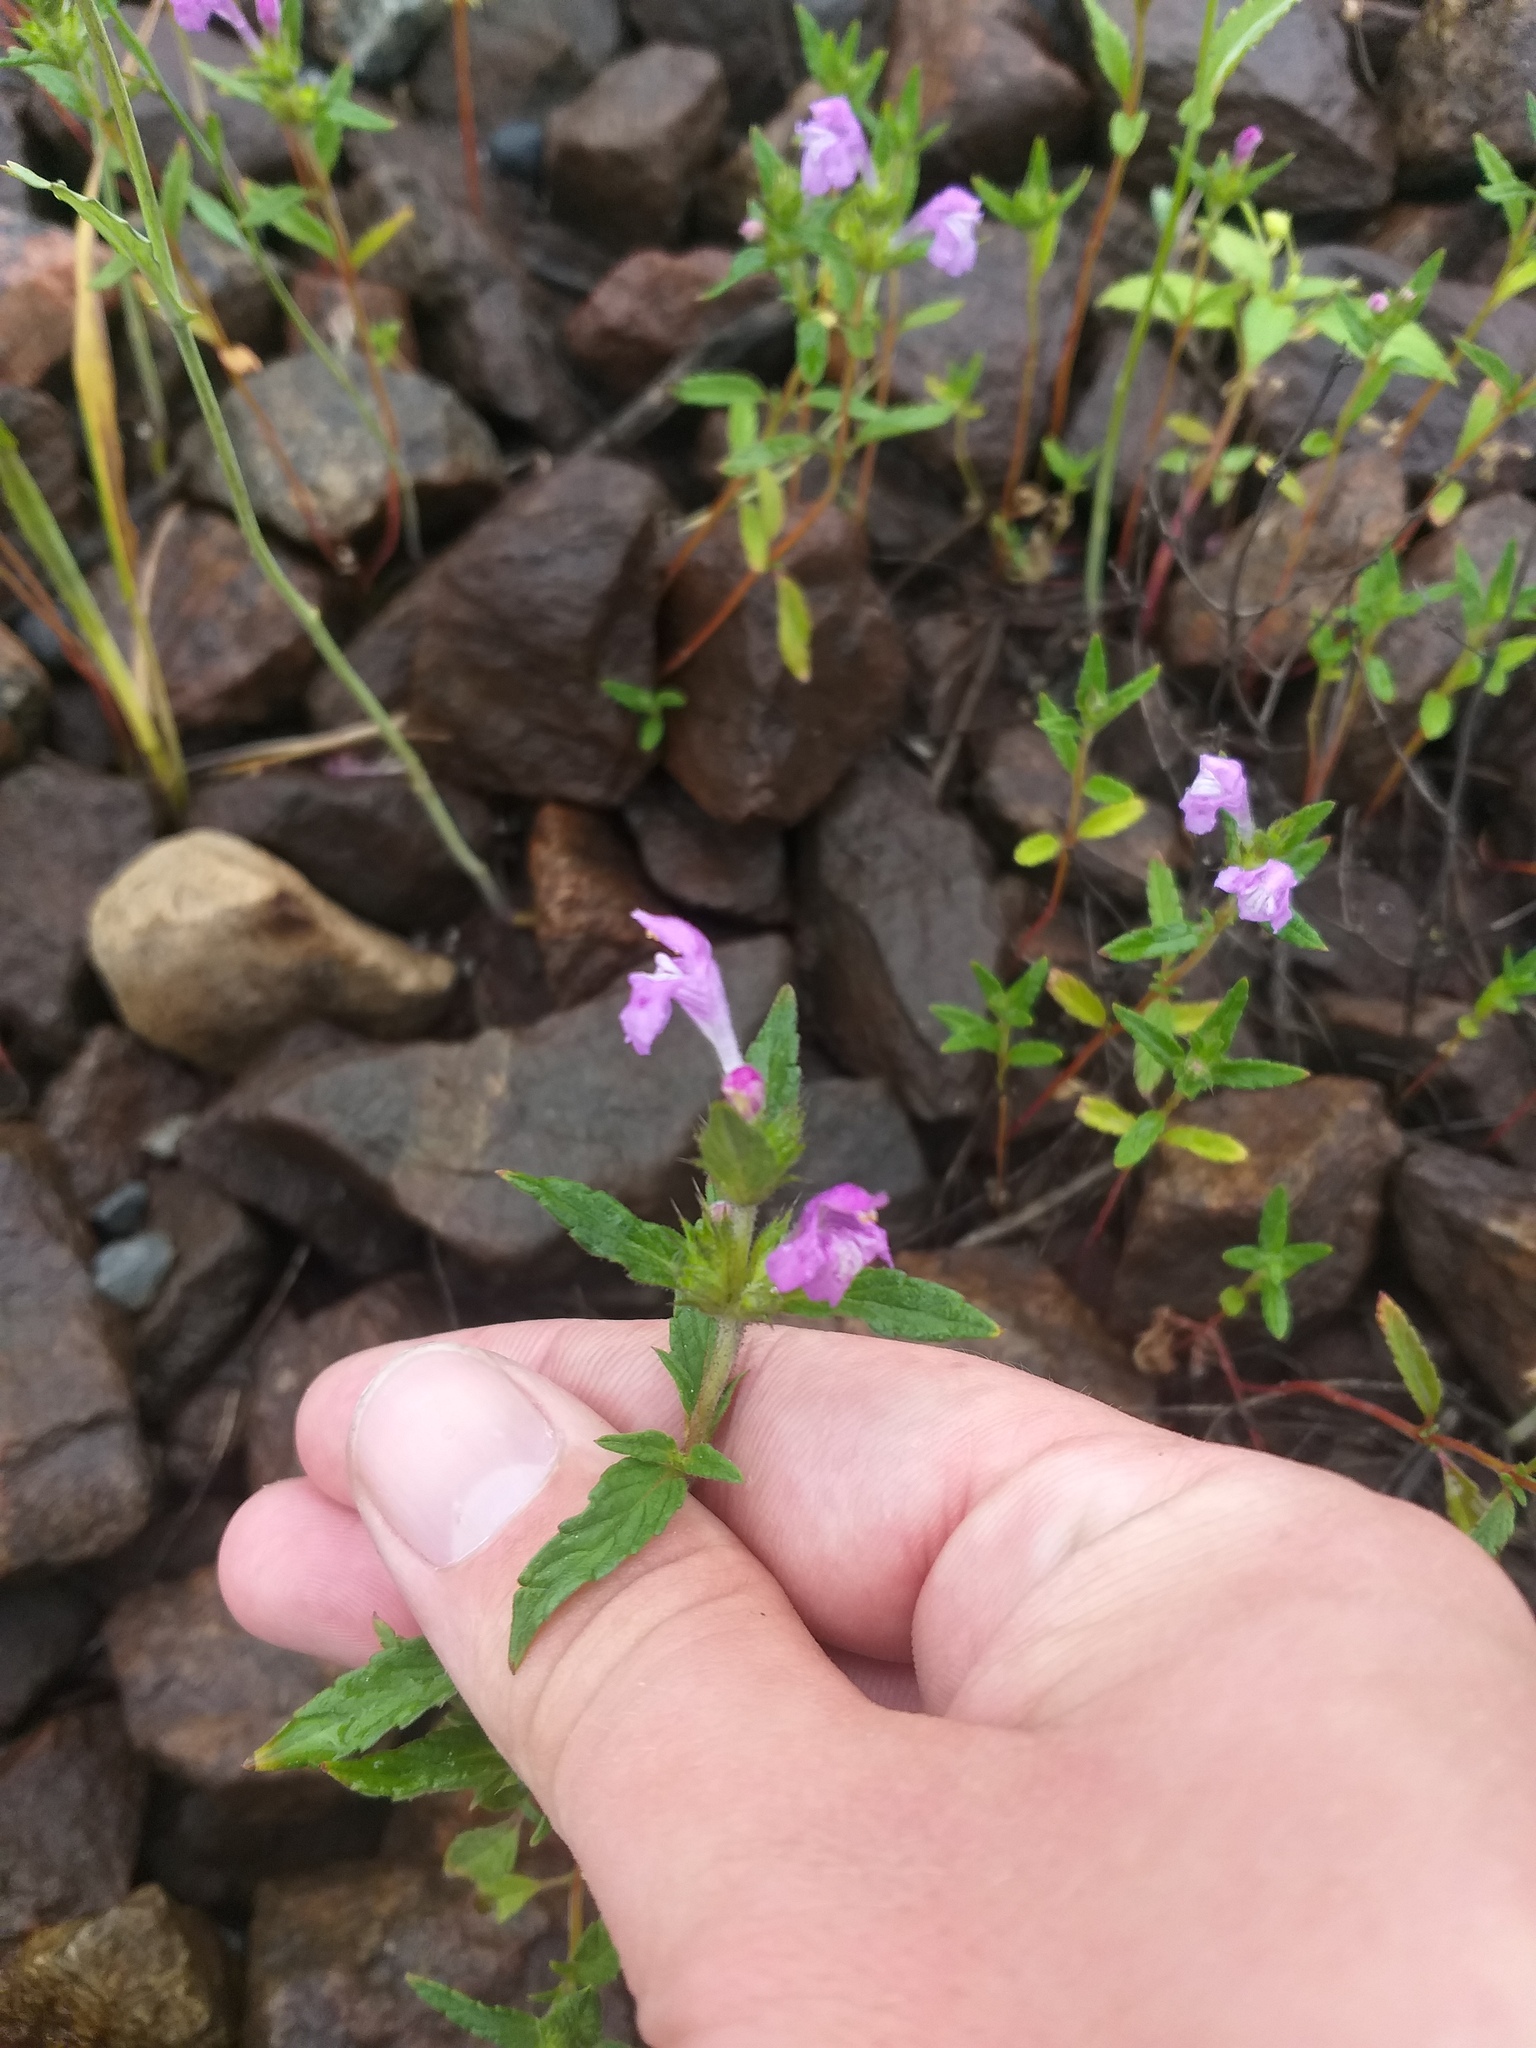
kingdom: Plantae
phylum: Tracheophyta
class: Magnoliopsida
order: Lamiales
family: Lamiaceae
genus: Galeopsis
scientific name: Galeopsis ladanum
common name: Broad-leaved hemp-nettle
